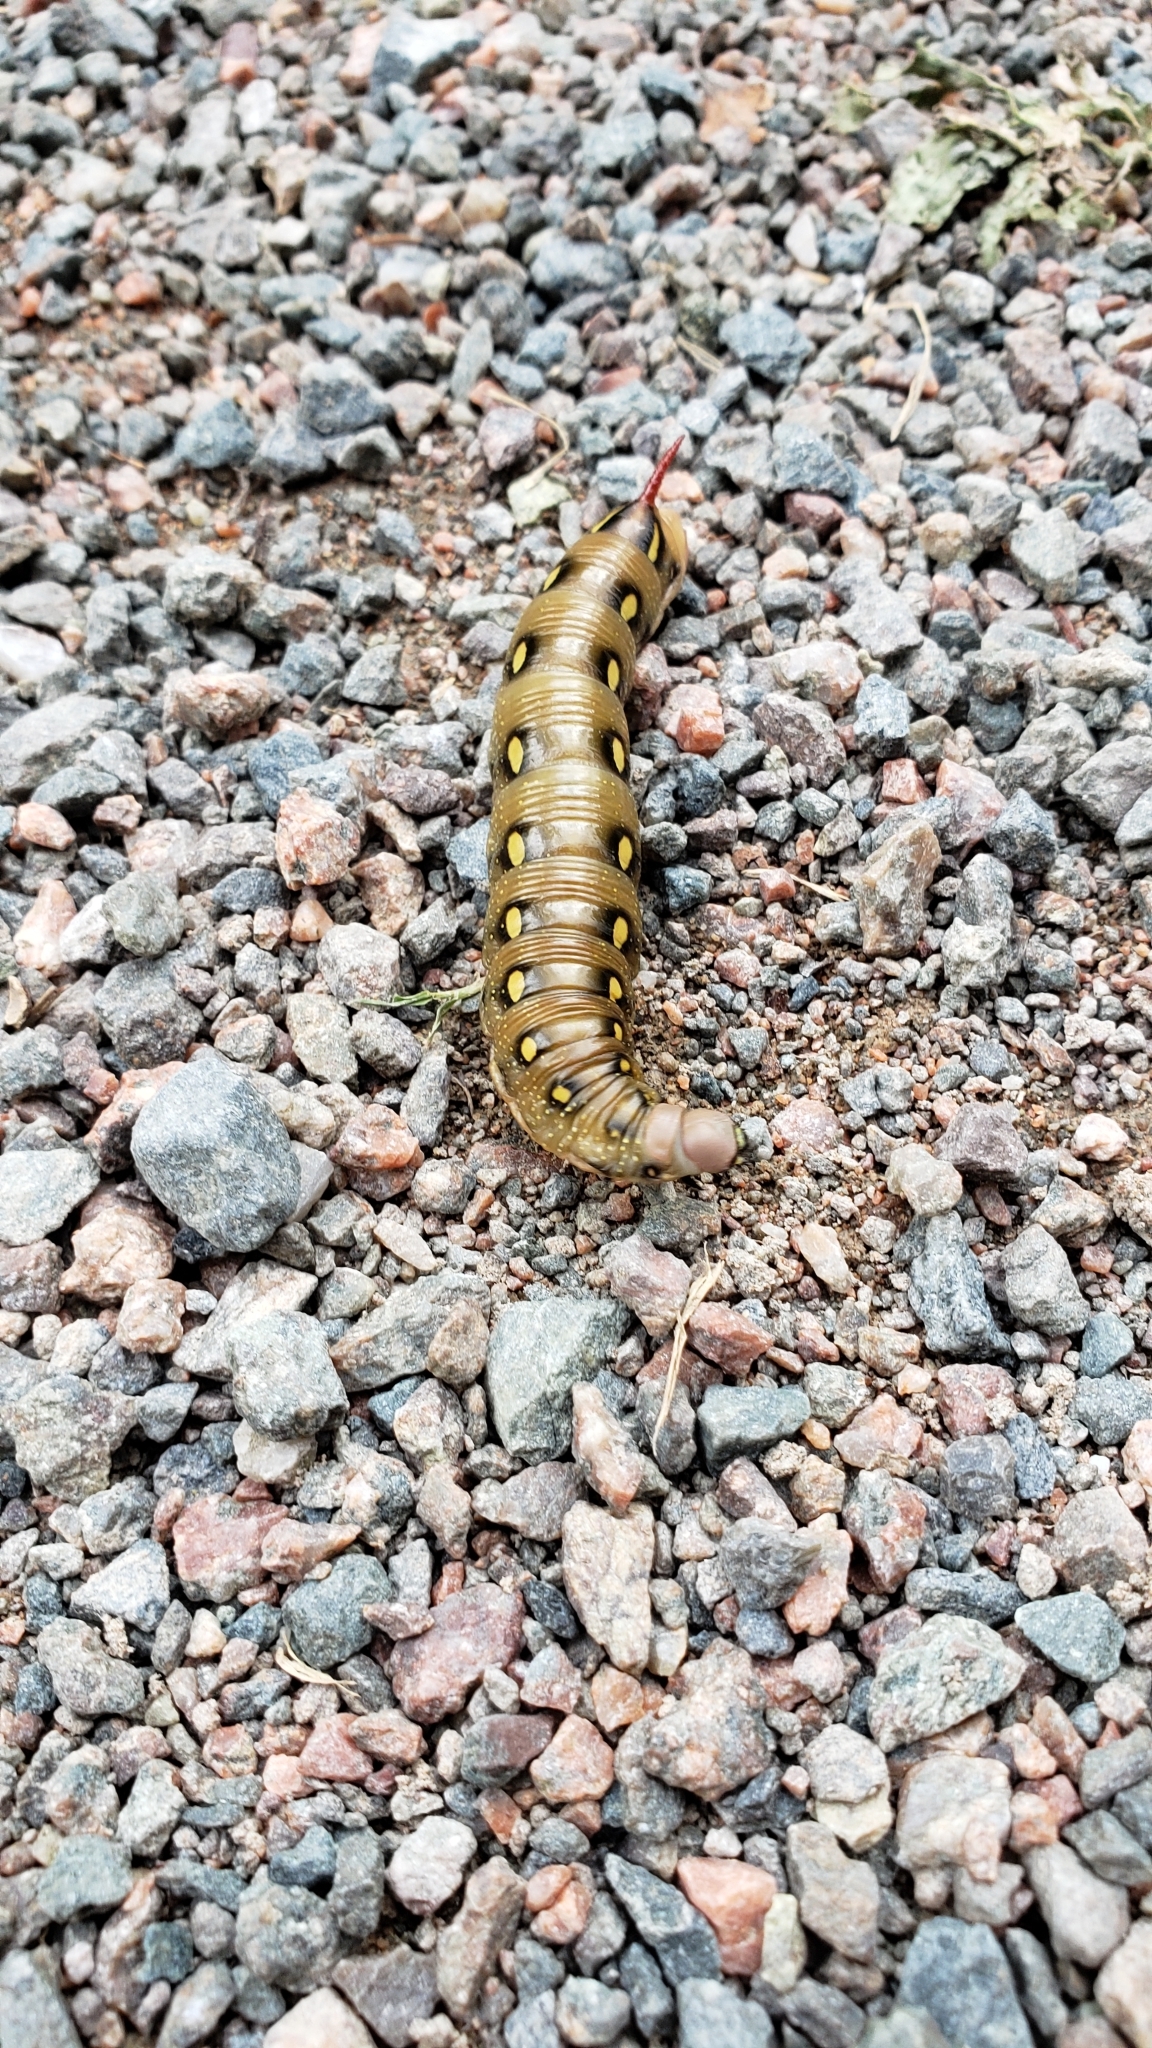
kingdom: Animalia
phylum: Arthropoda
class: Insecta
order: Lepidoptera
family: Sphingidae
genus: Hyles
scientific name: Hyles gallii
